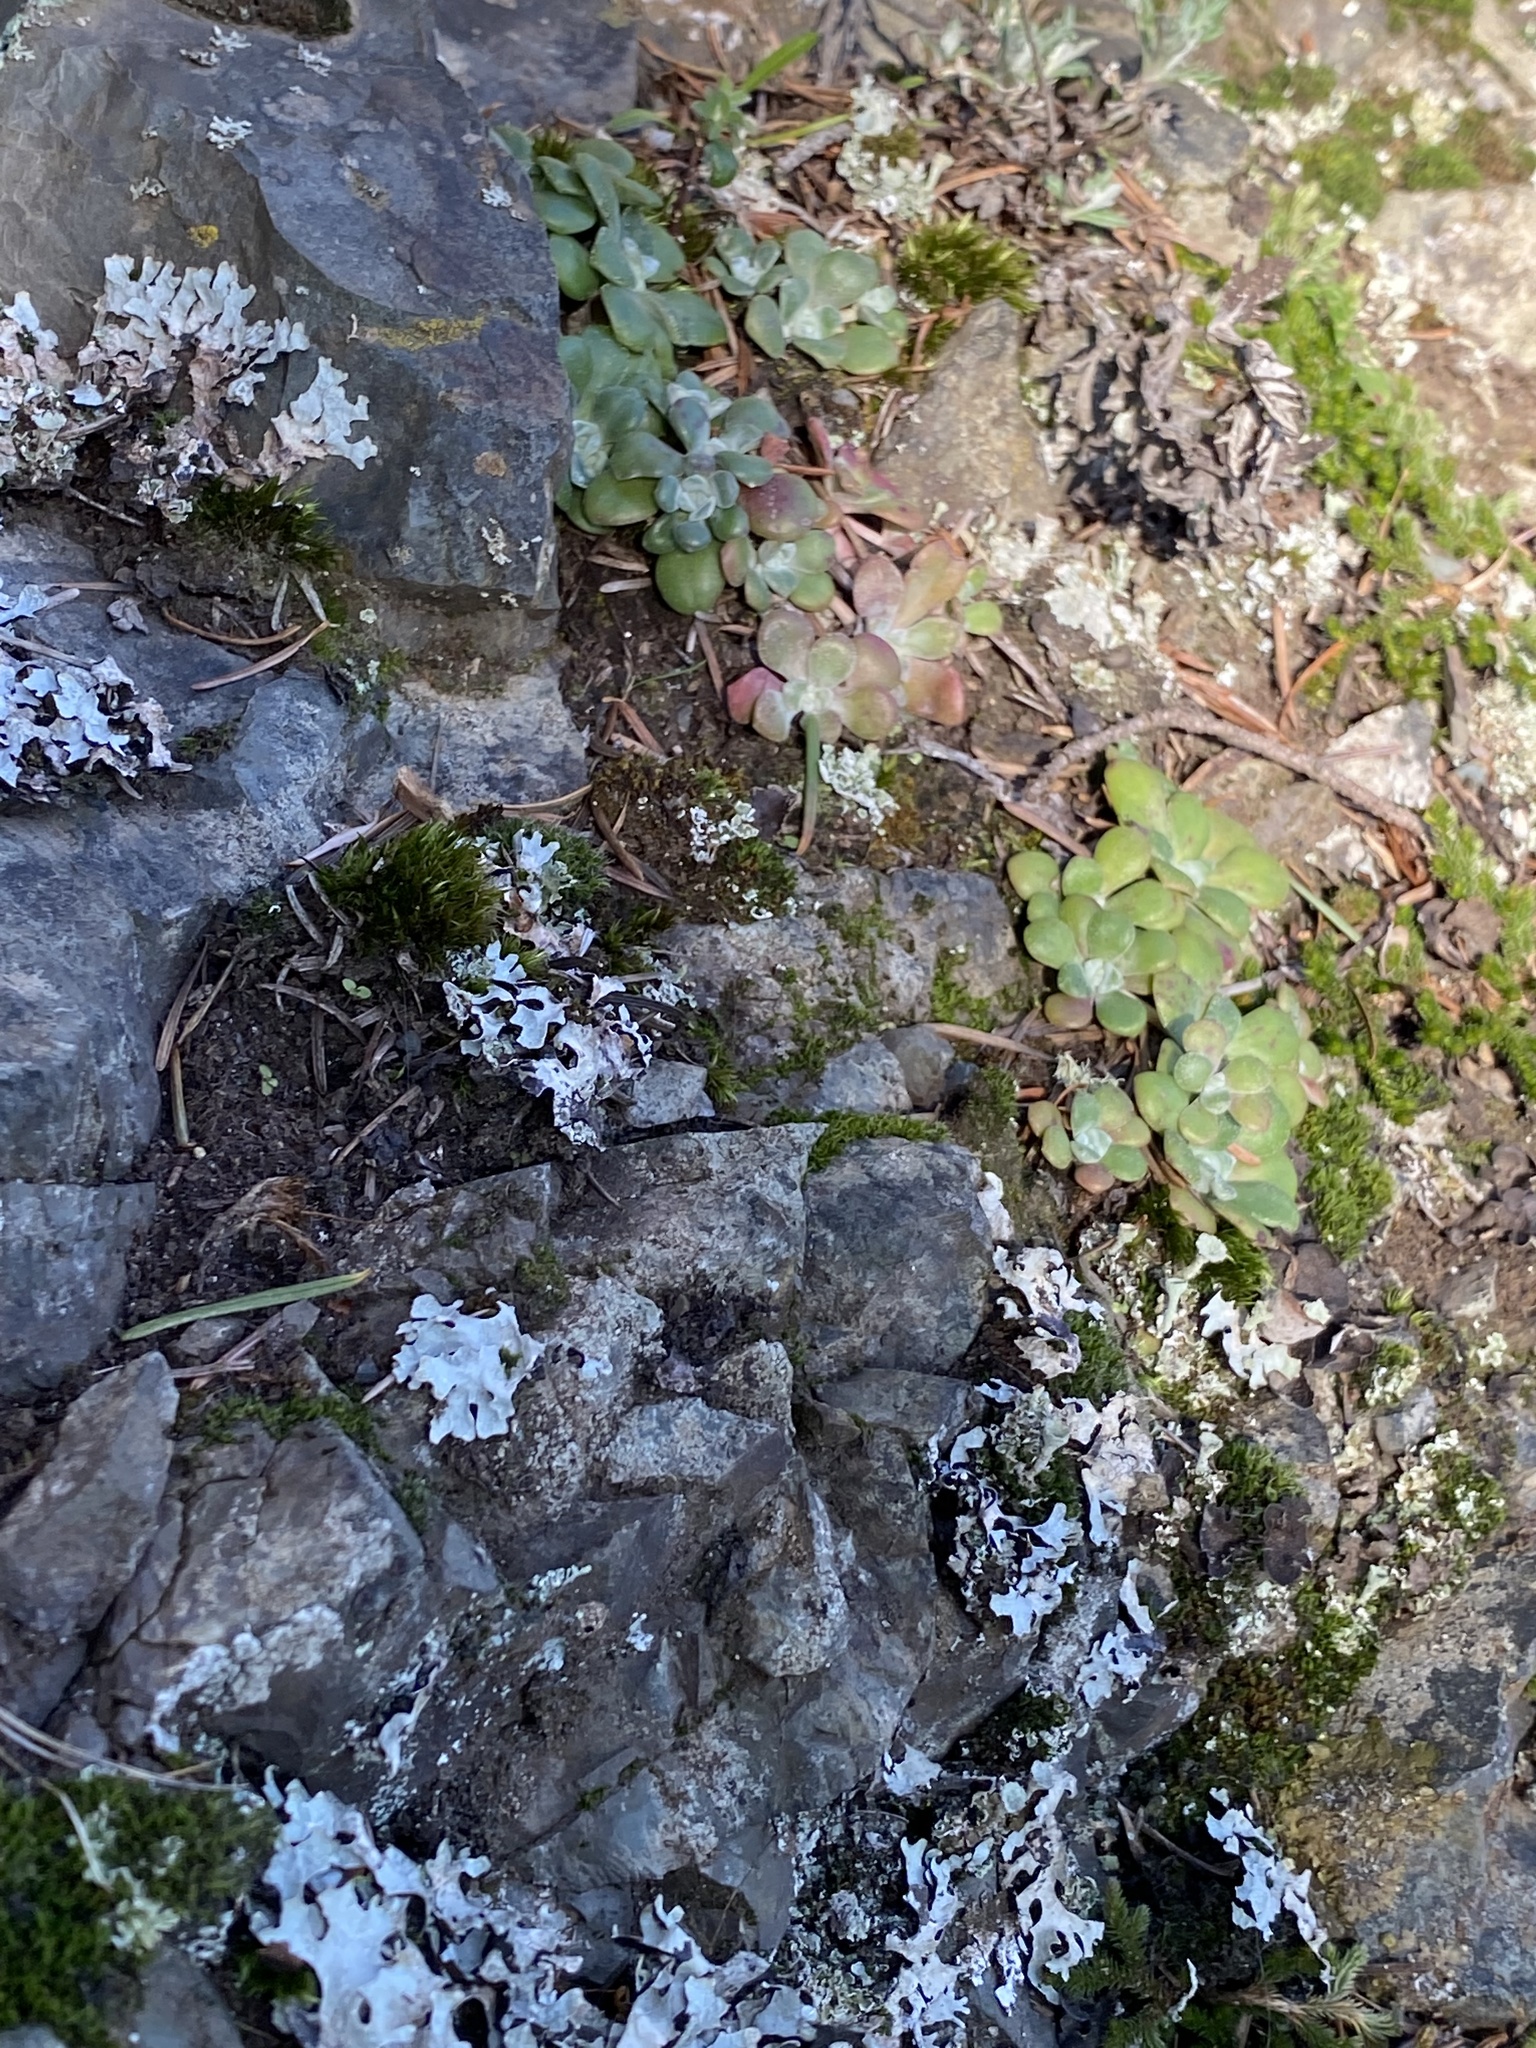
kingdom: Plantae
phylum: Tracheophyta
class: Magnoliopsida
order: Saxifragales
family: Crassulaceae
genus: Sedum
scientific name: Sedum spathulifolium
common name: Colorado stonecrop
